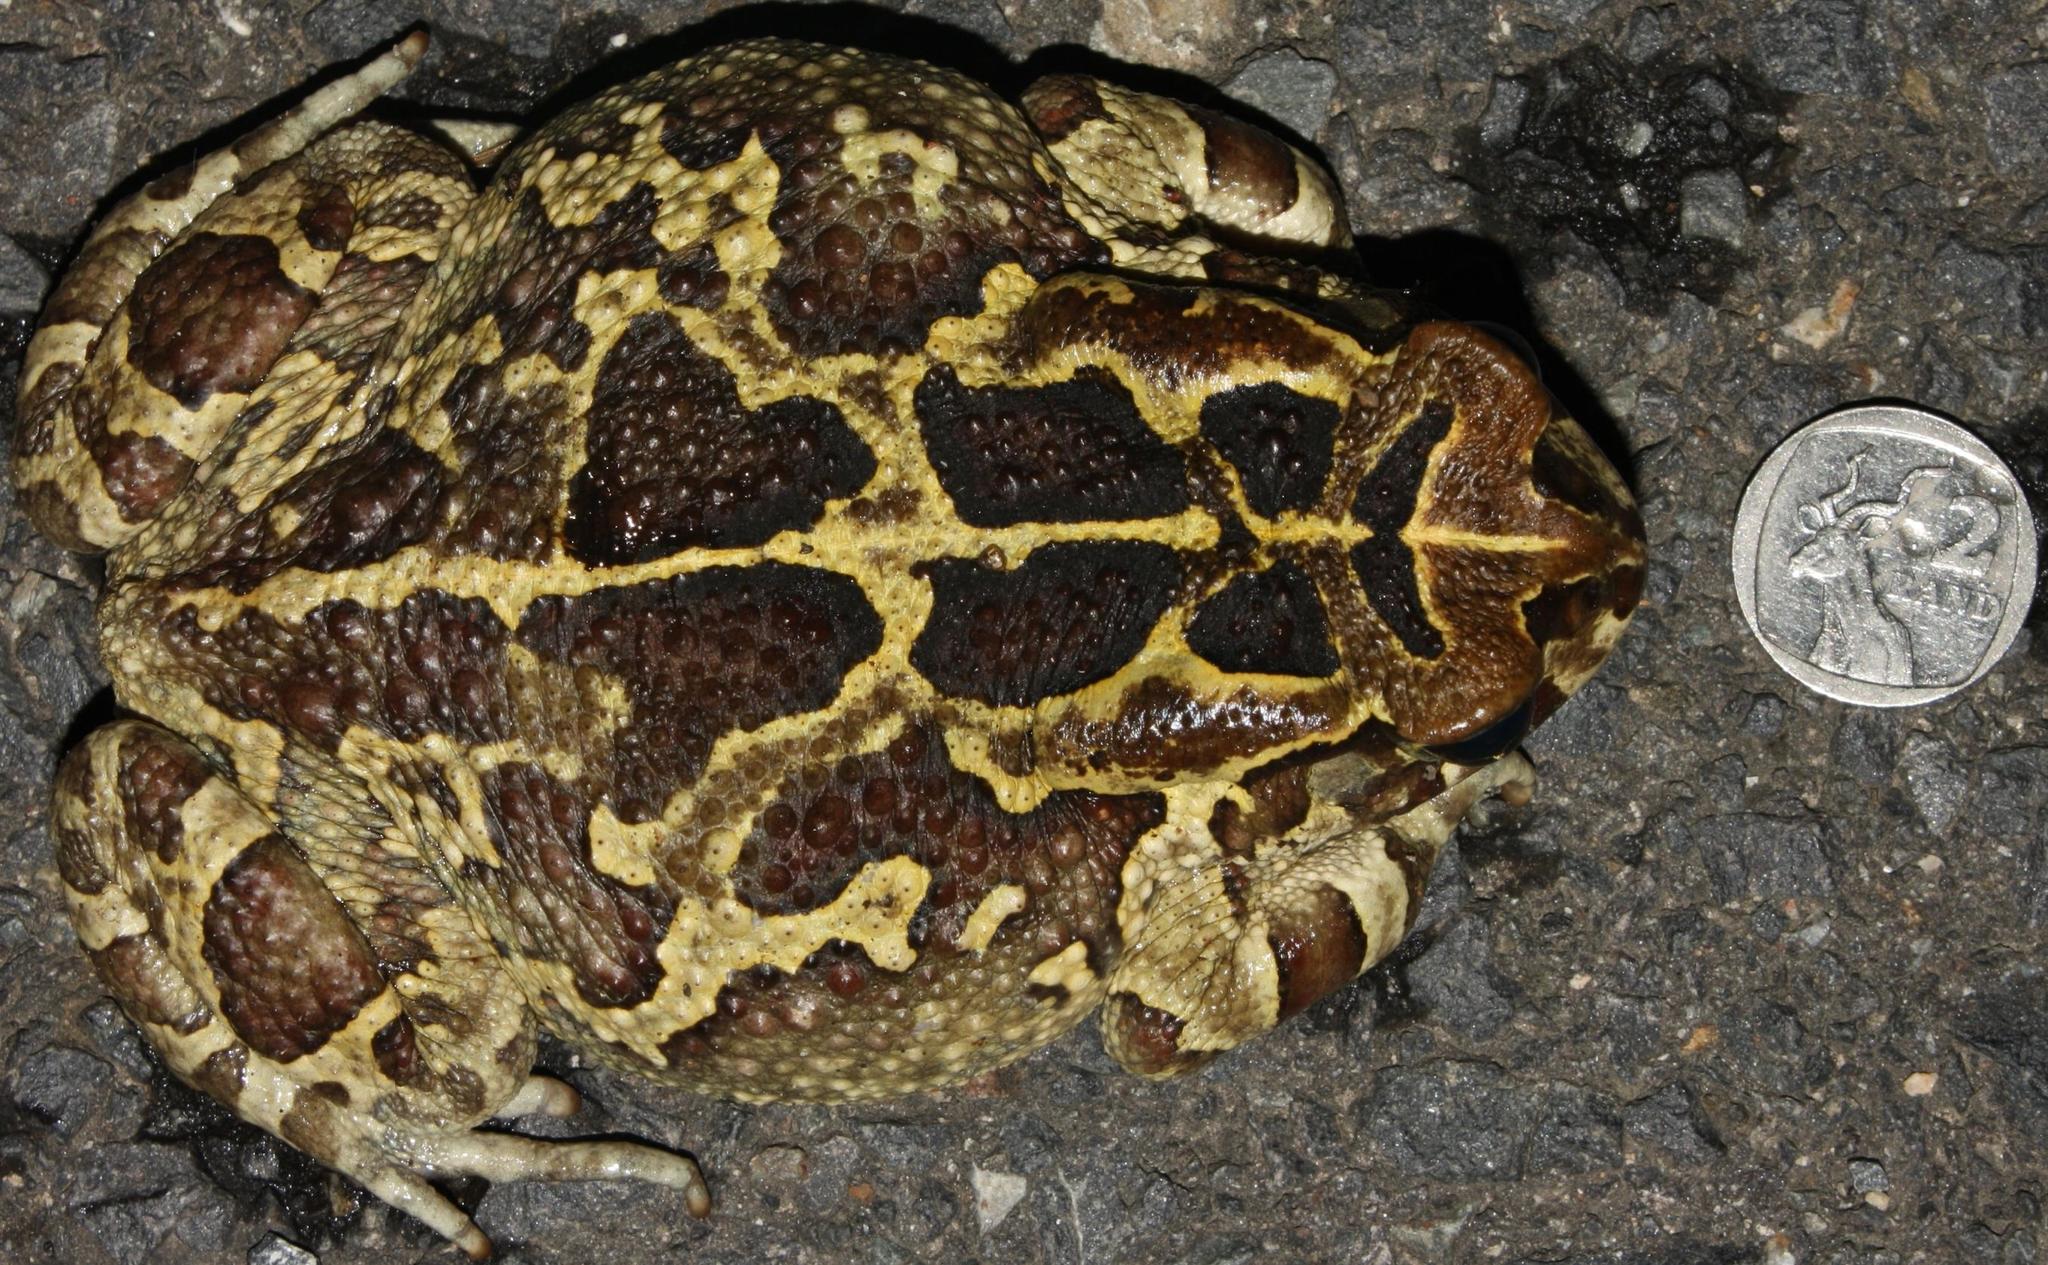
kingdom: Animalia
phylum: Chordata
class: Amphibia
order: Anura
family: Bufonidae
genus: Sclerophrys
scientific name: Sclerophrys pantherina
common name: Panther toad
